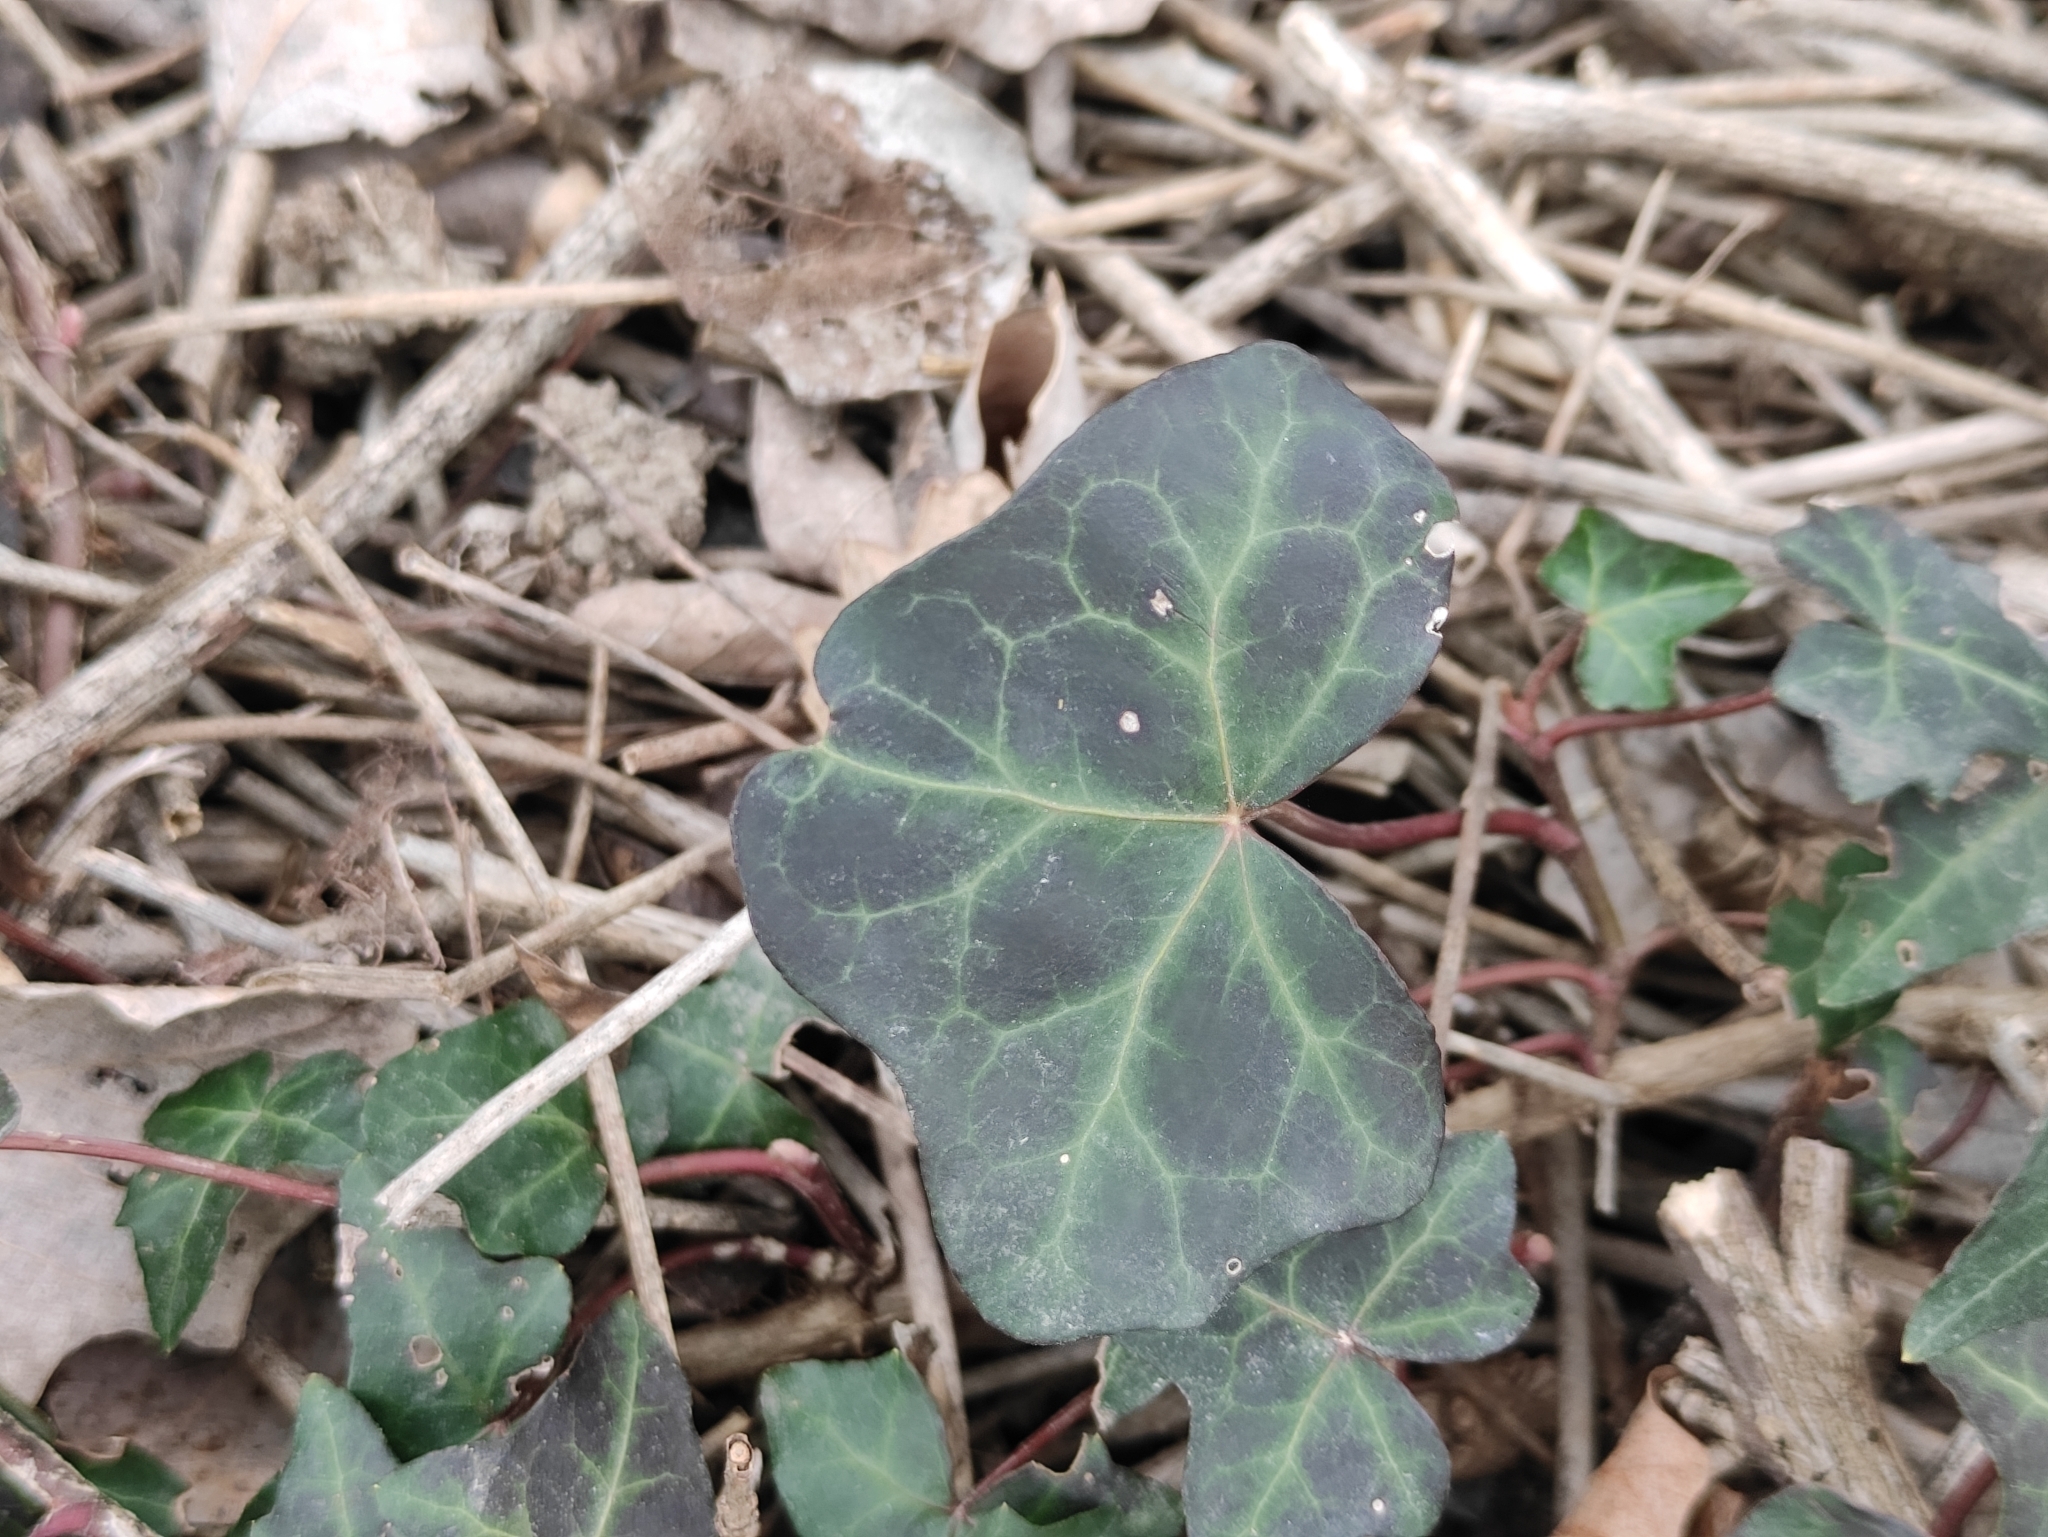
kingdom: Plantae
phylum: Tracheophyta
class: Magnoliopsida
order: Apiales
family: Araliaceae
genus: Hedera
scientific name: Hedera helix
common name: Ivy
